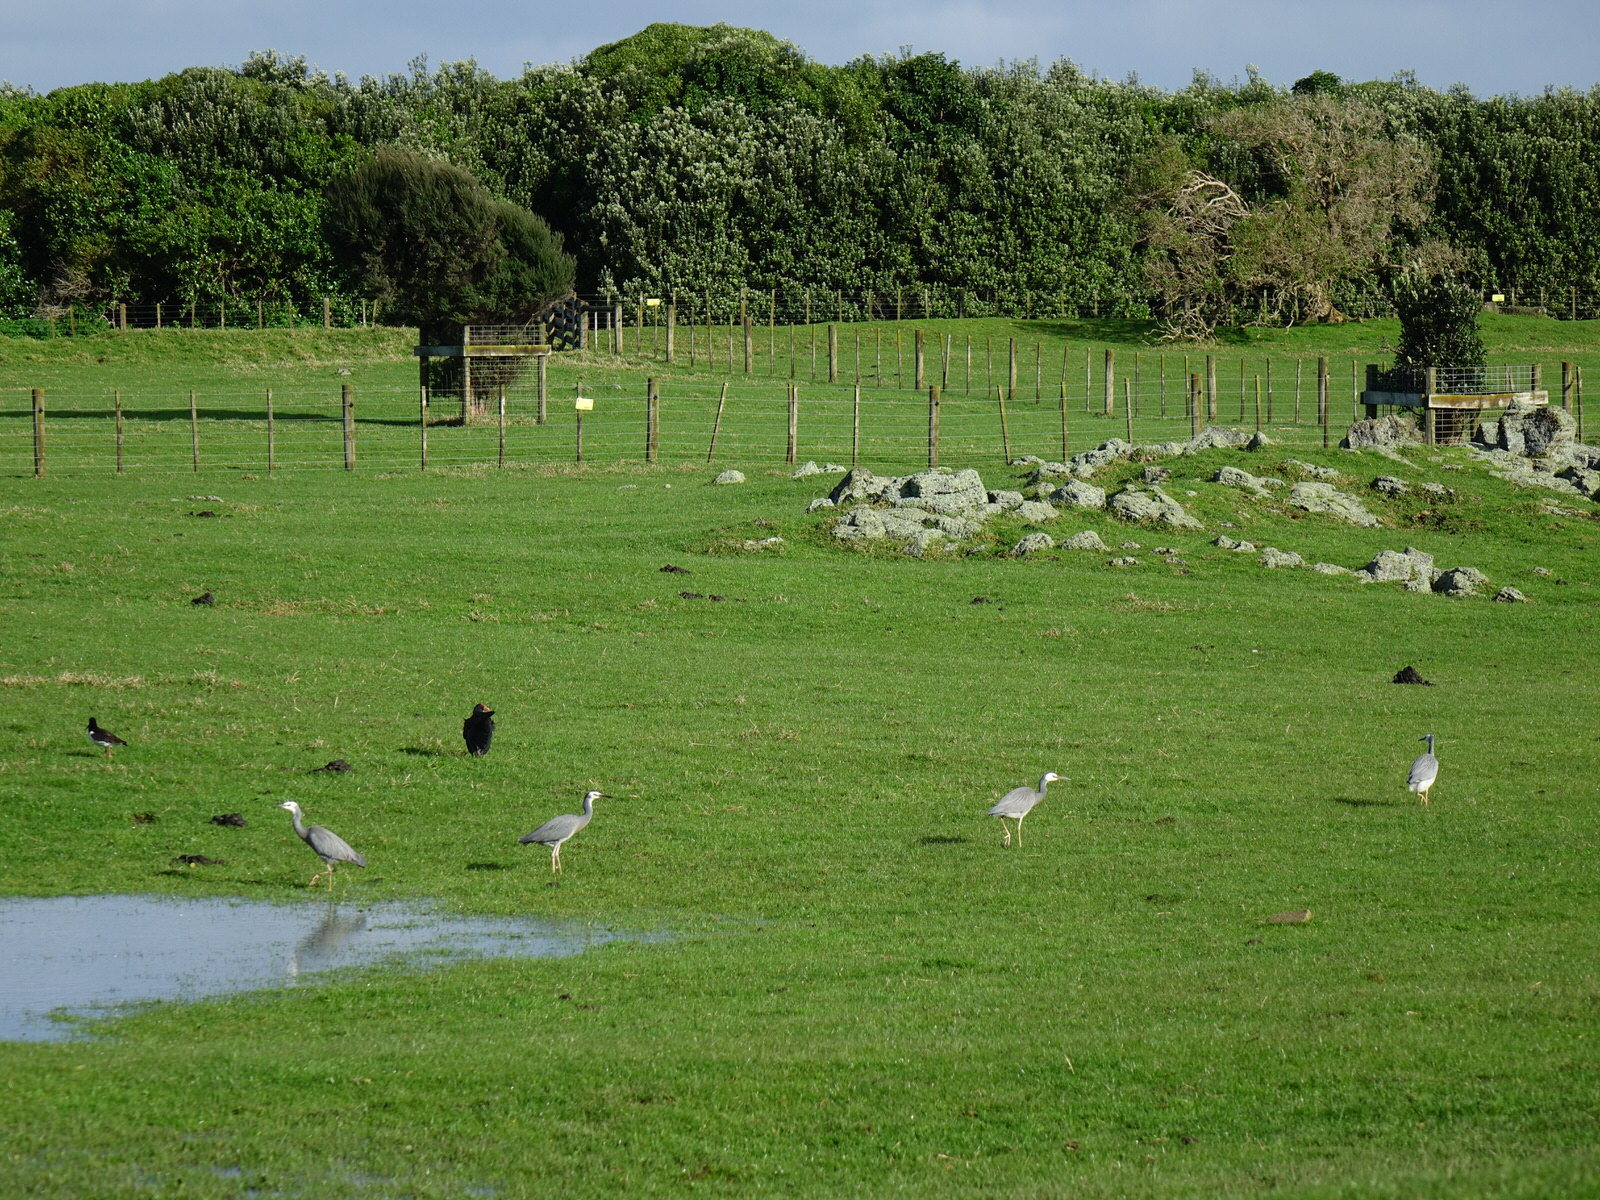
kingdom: Animalia
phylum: Chordata
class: Aves
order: Pelecaniformes
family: Ardeidae
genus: Egretta
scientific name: Egretta novaehollandiae
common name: White-faced heron
